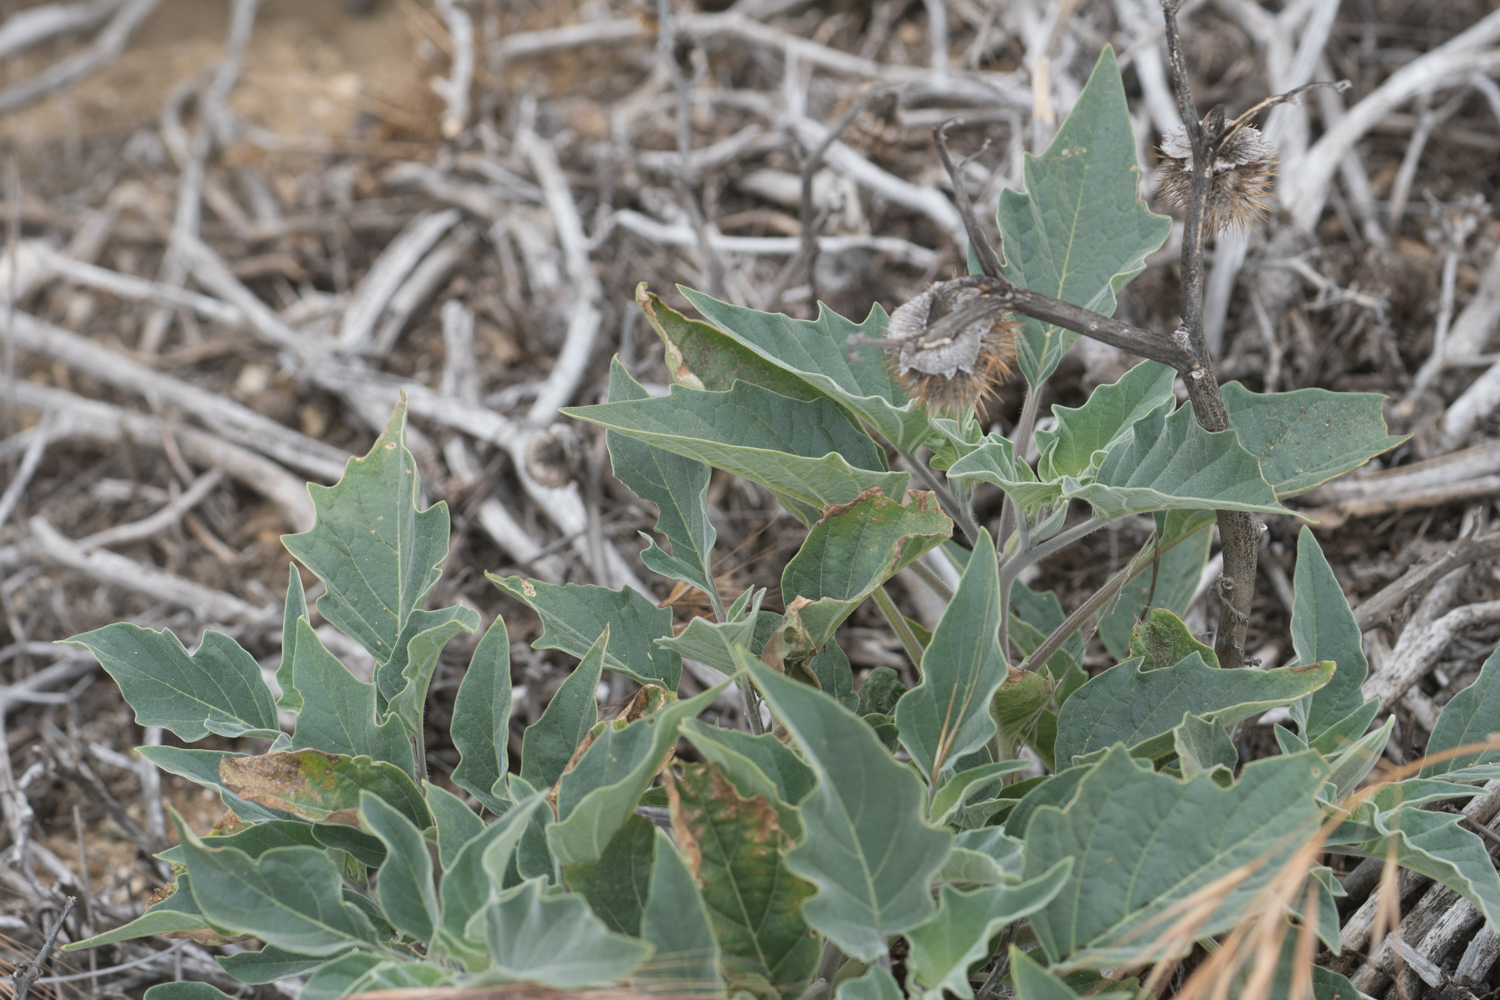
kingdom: Plantae
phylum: Tracheophyta
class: Magnoliopsida
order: Solanales
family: Solanaceae
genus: Datura
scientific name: Datura wrightii
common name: Sacred thorn-apple
